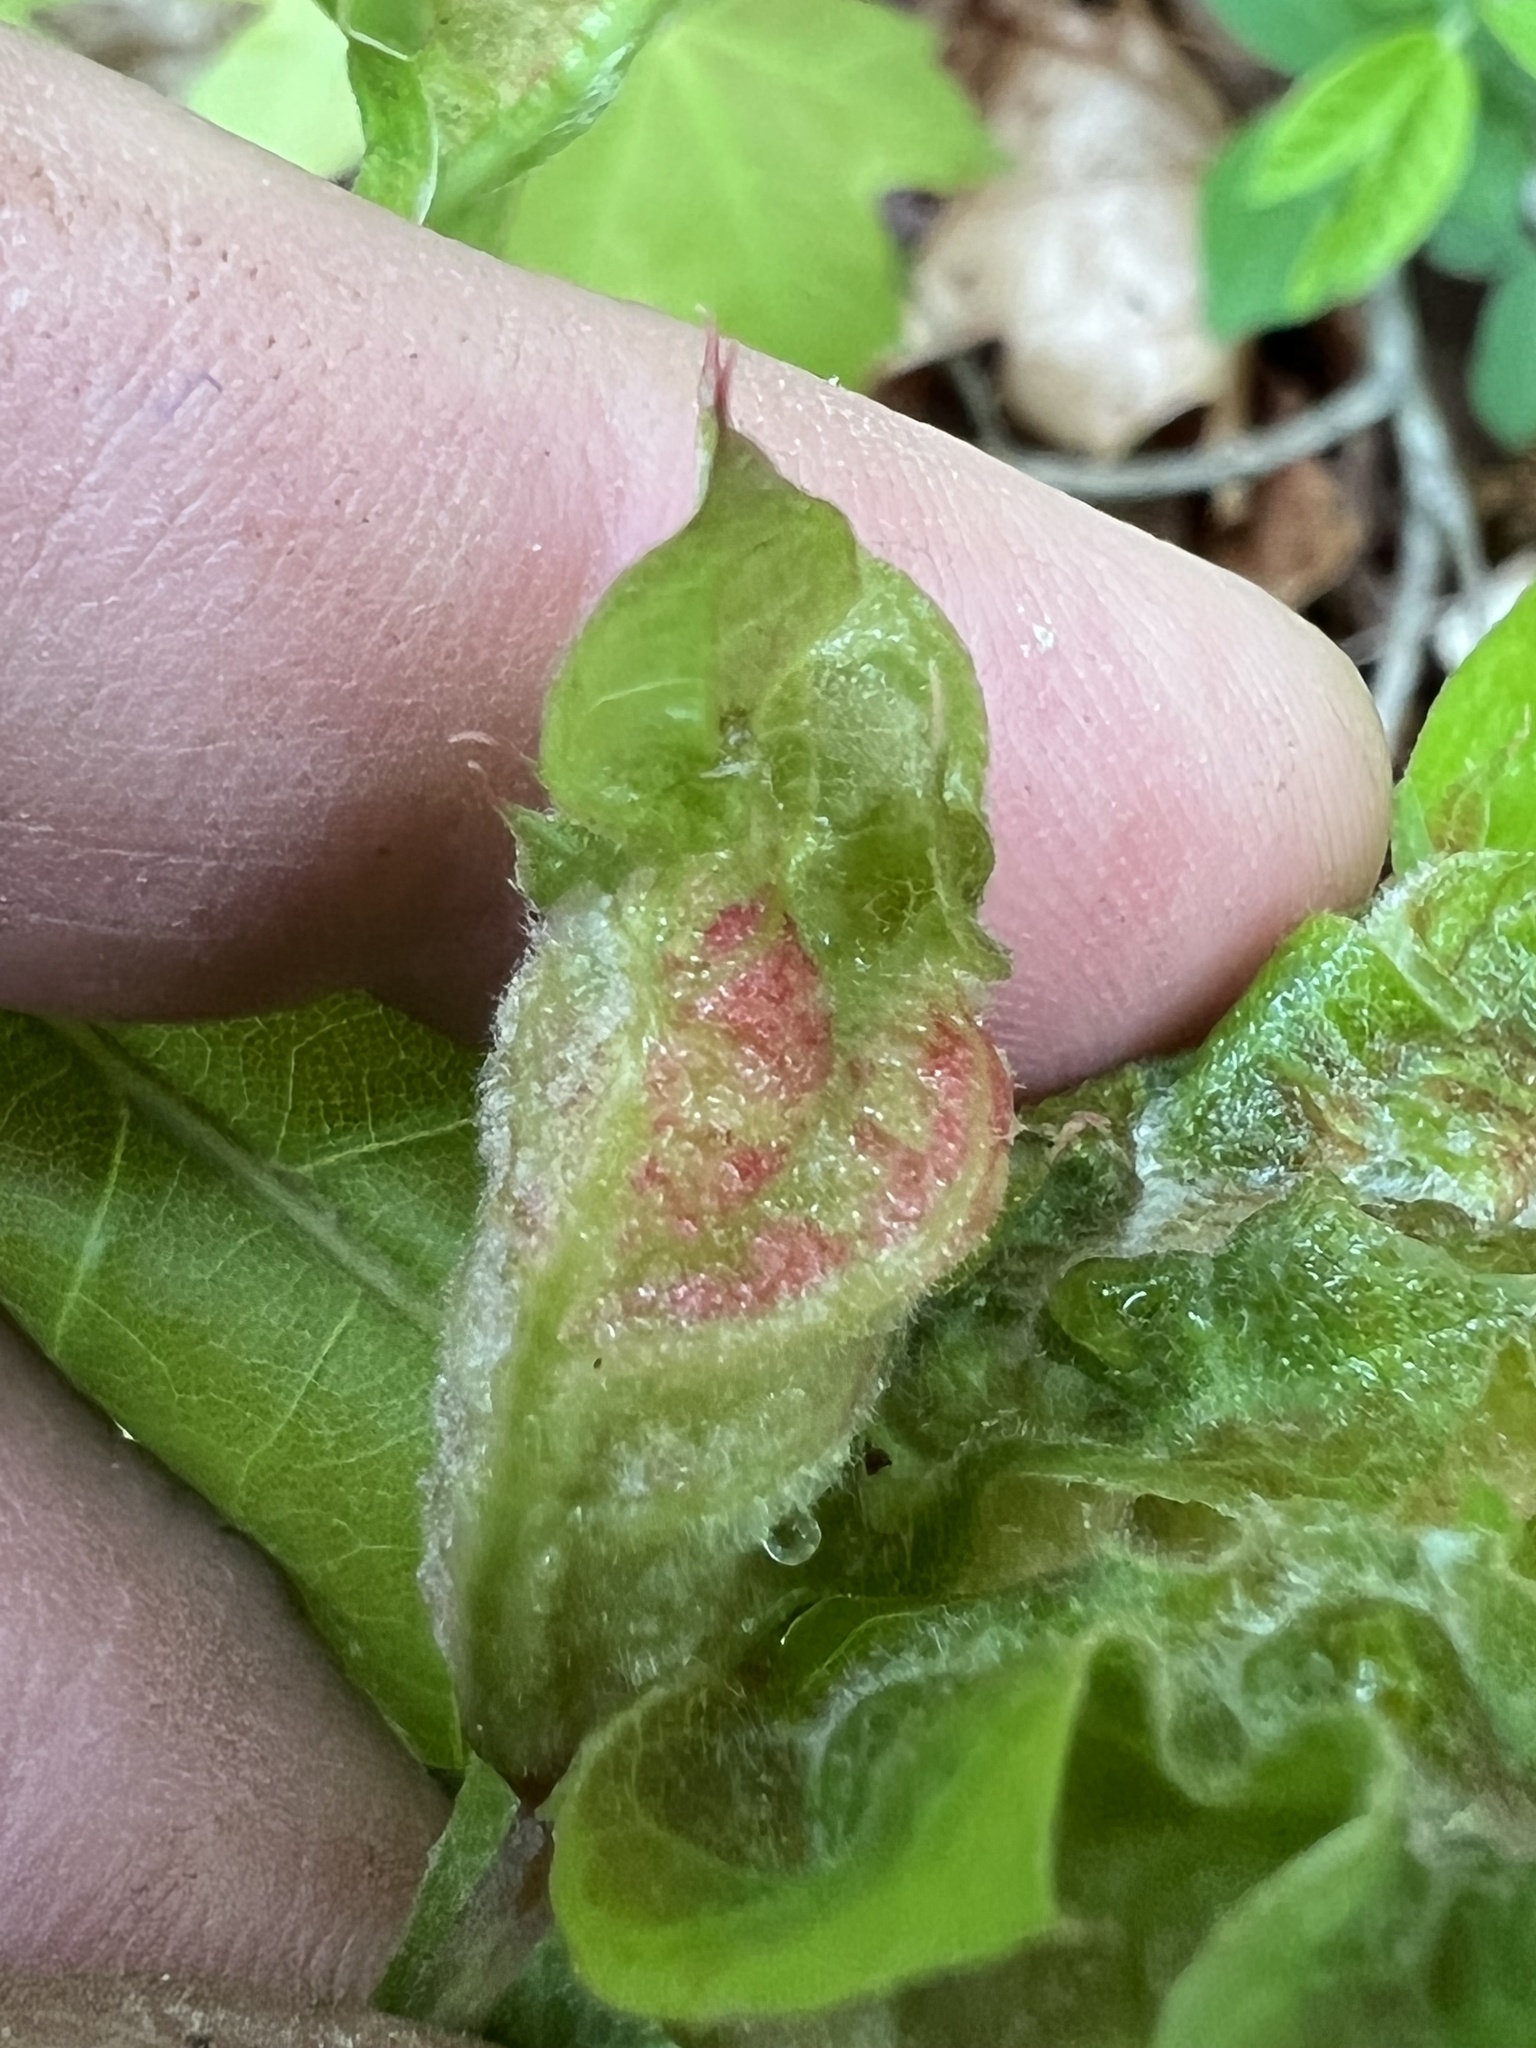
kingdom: Animalia
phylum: Arthropoda
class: Insecta
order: Diptera
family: Cecidomyiidae
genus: Macrodiplosis
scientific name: Macrodiplosis niveipila
